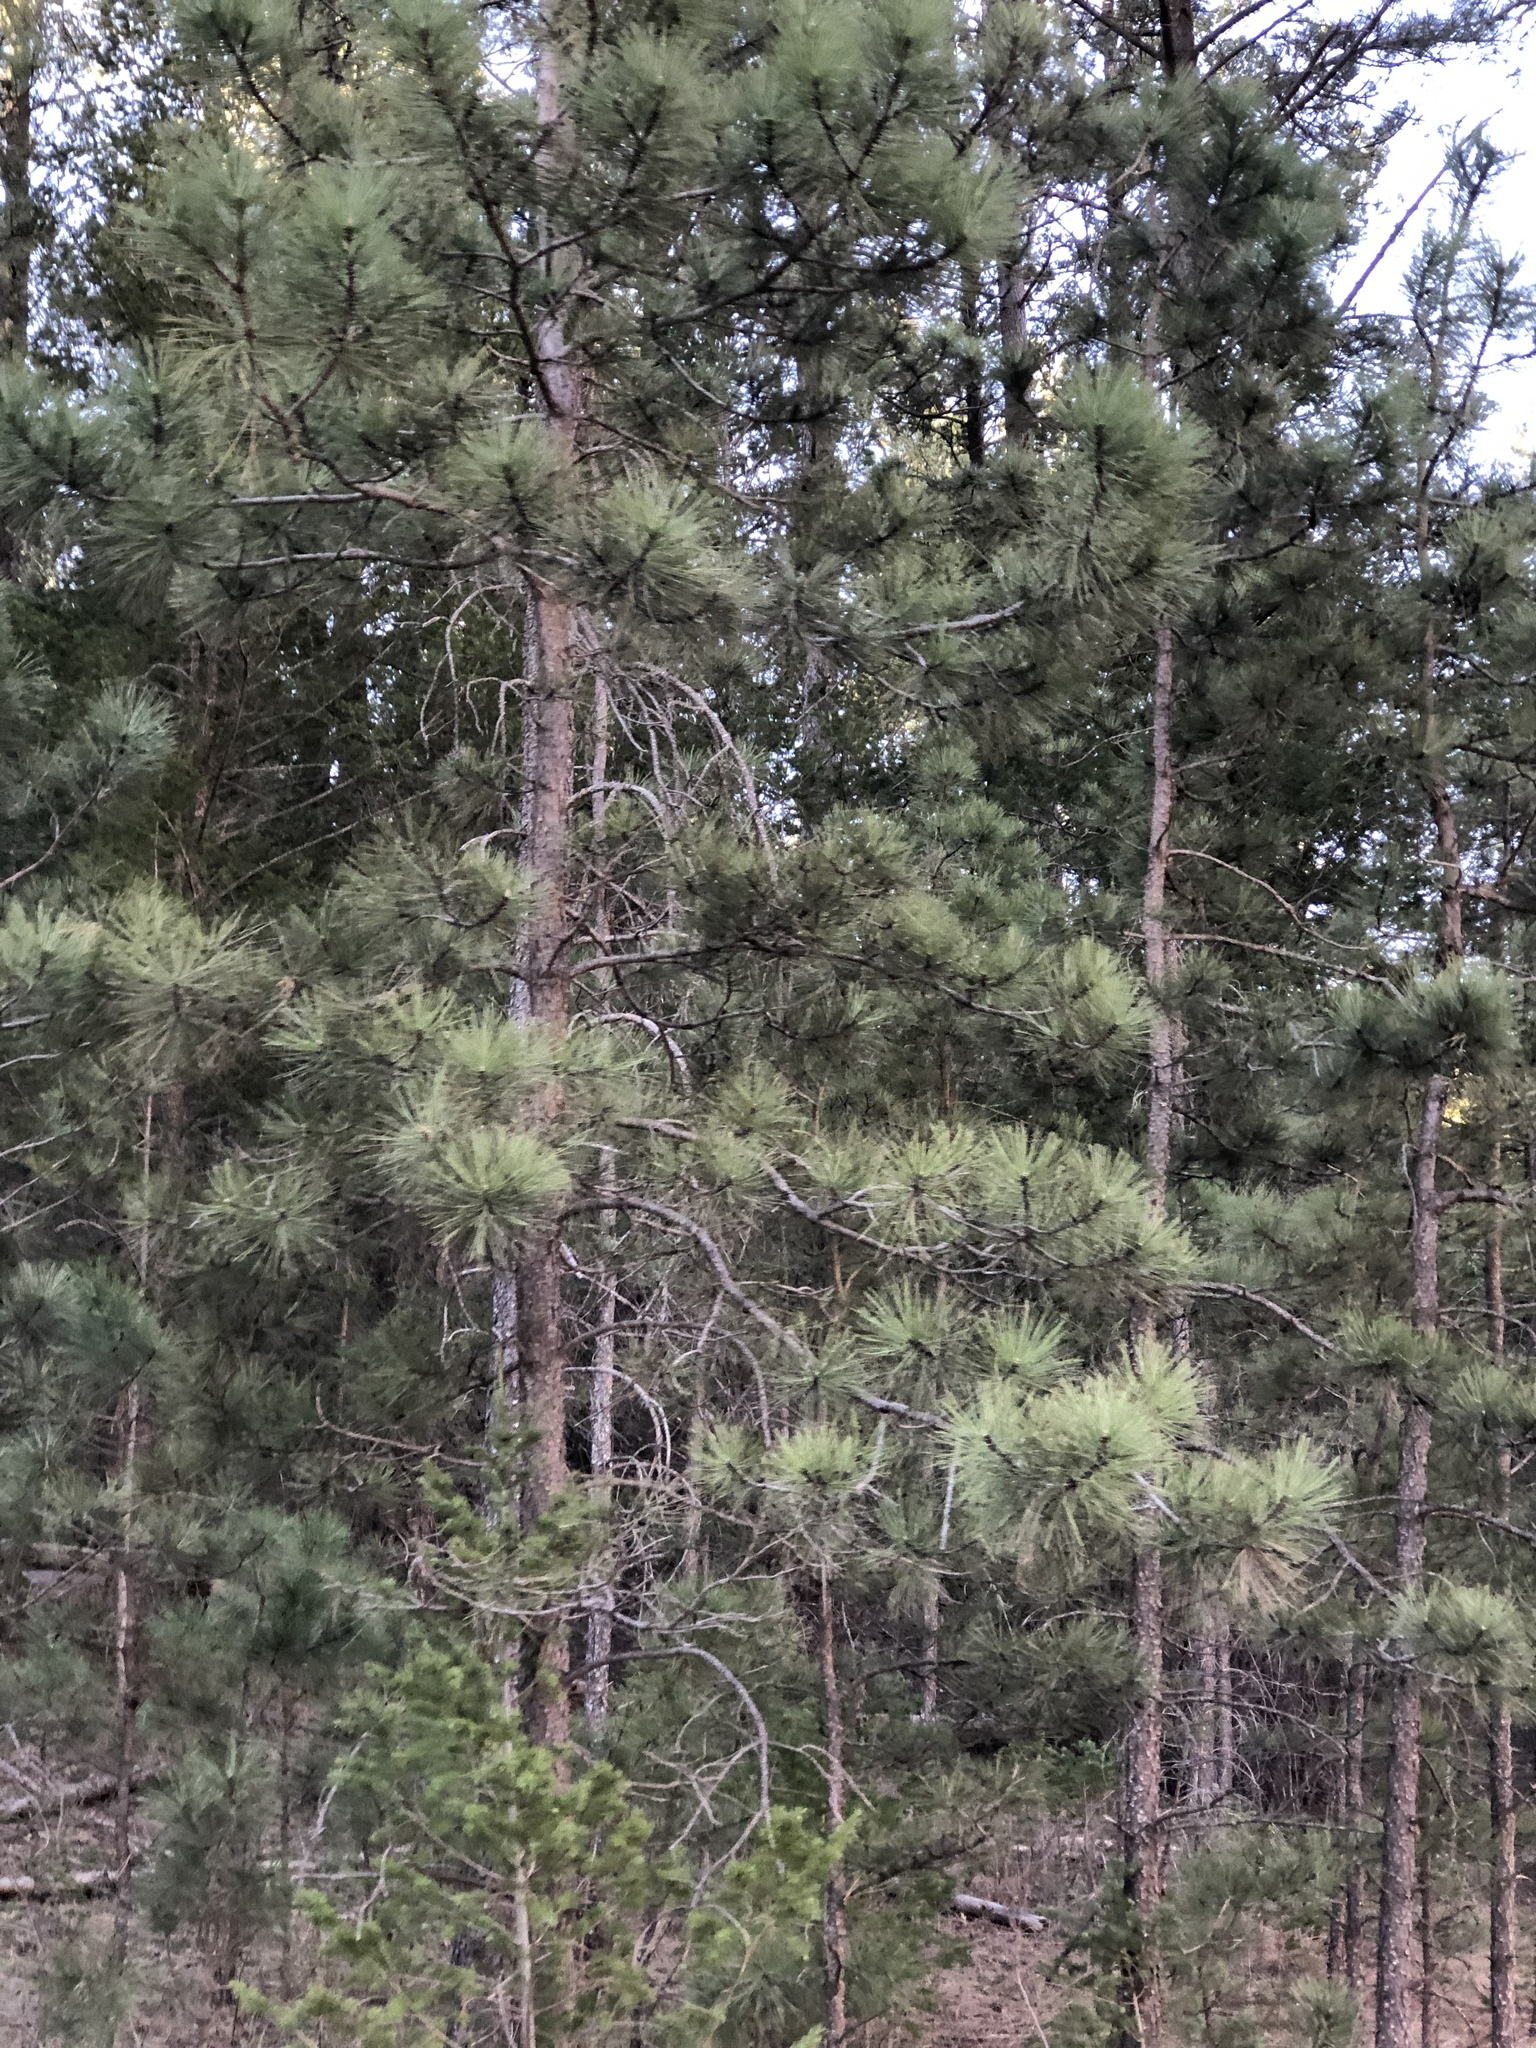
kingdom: Plantae
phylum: Tracheophyta
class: Pinopsida
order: Pinales
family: Pinaceae
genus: Pinus
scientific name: Pinus ponderosa
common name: Western yellow-pine
